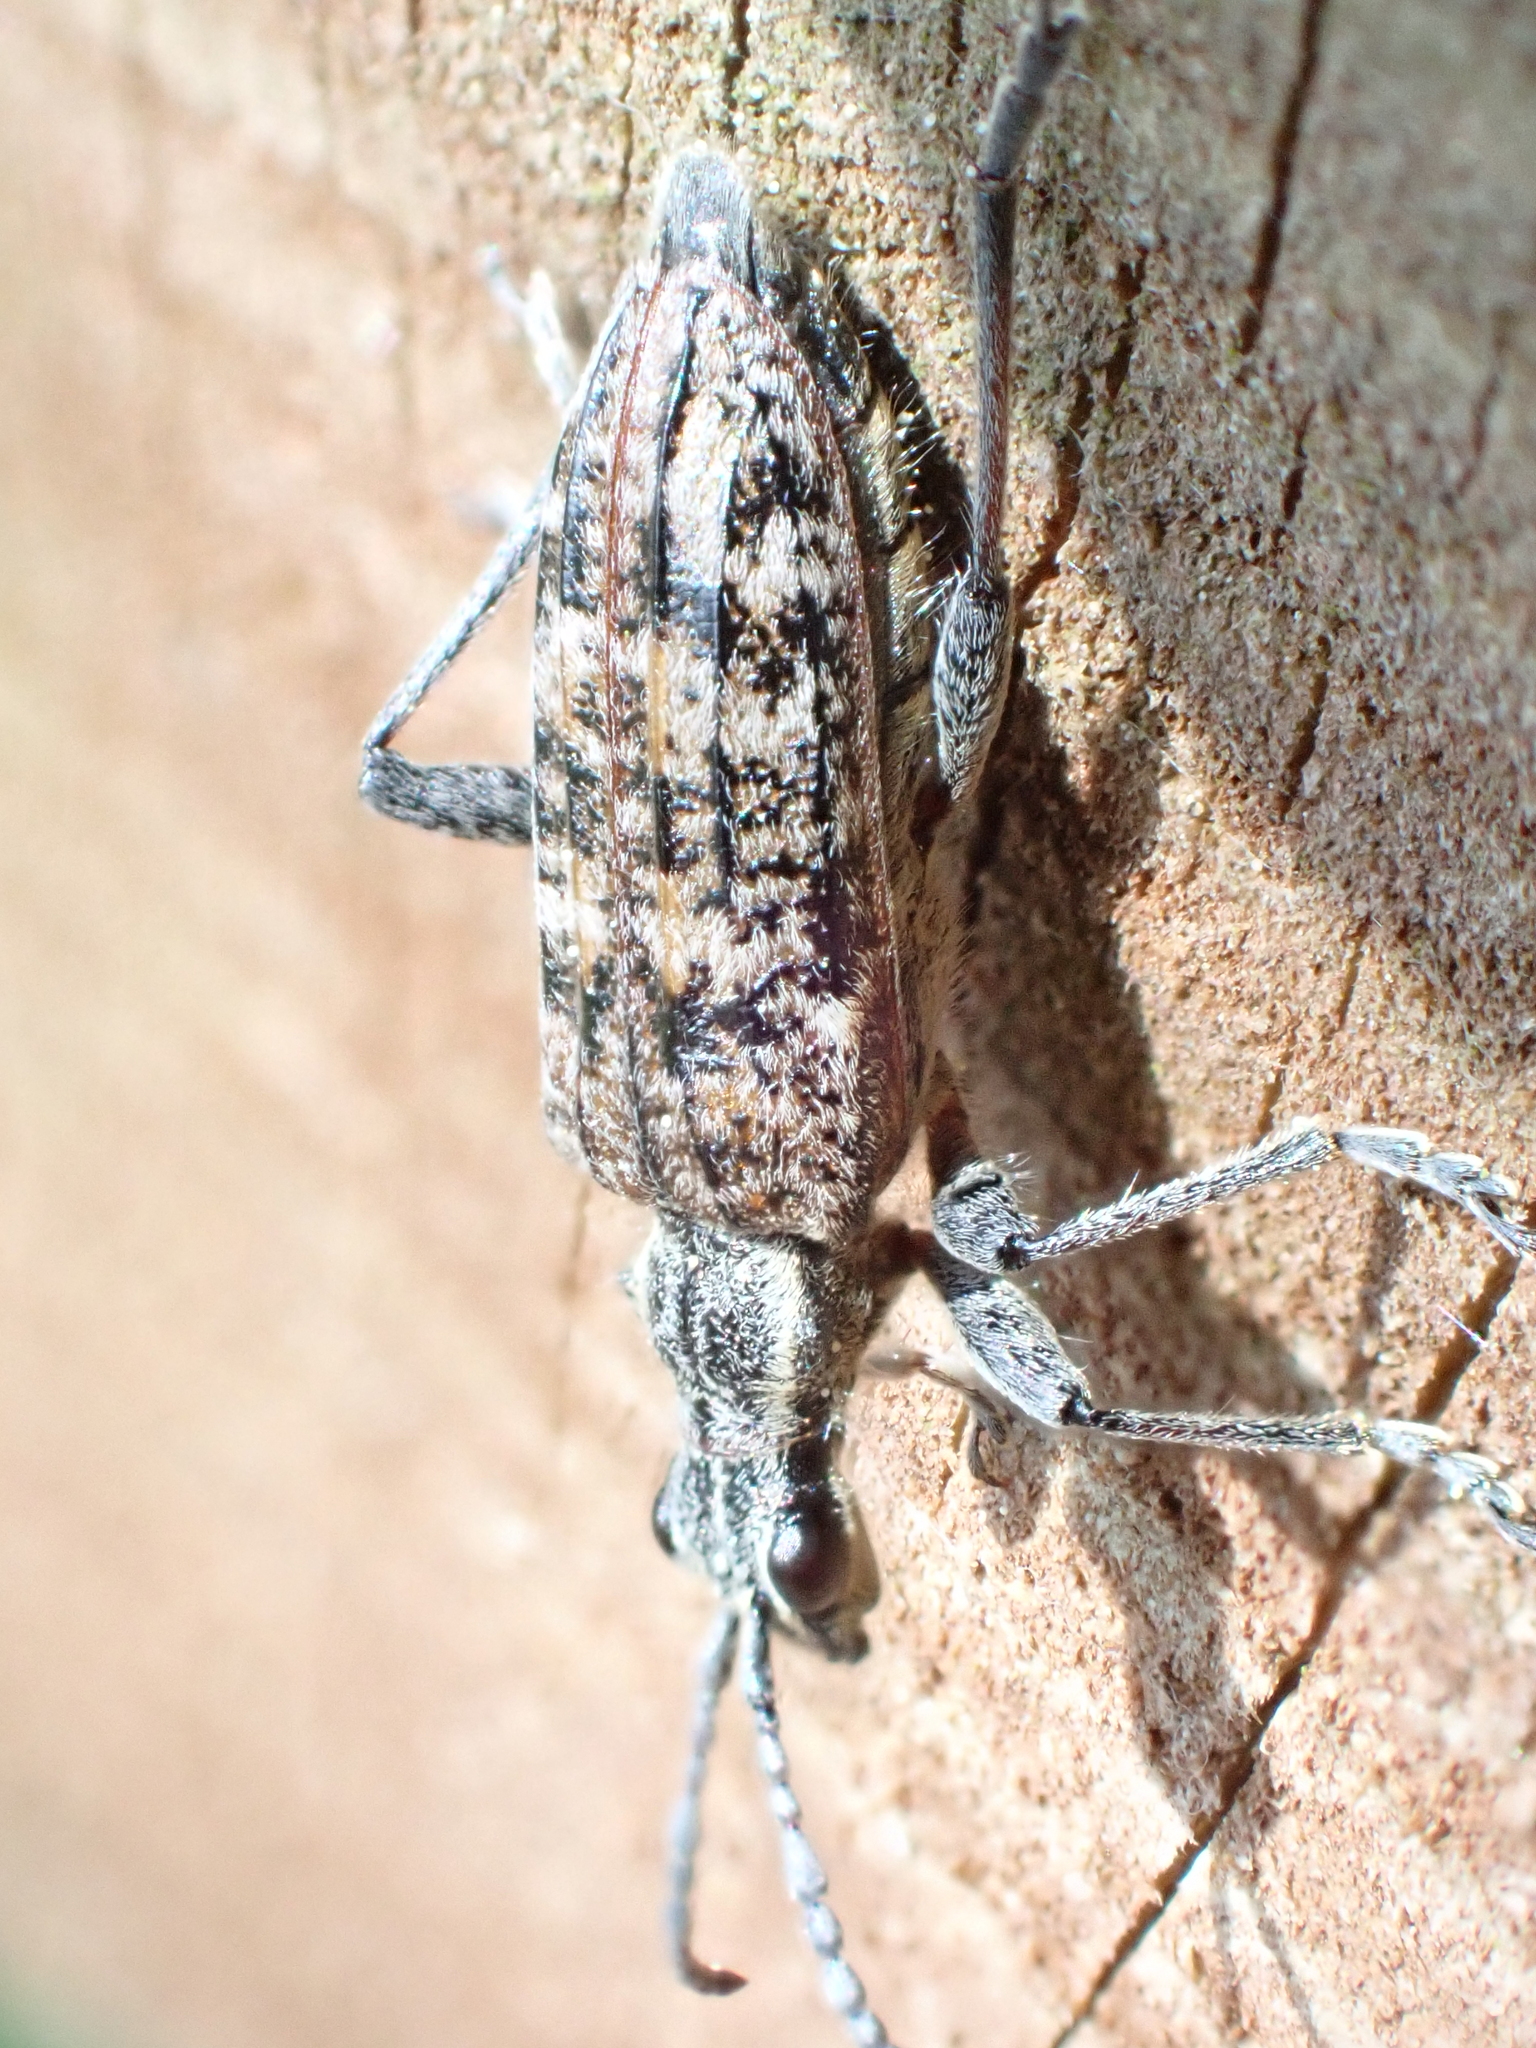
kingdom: Animalia
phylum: Arthropoda
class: Insecta
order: Coleoptera
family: Cerambycidae
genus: Rhagium
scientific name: Rhagium inquisitor
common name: Ribbed pine borer
